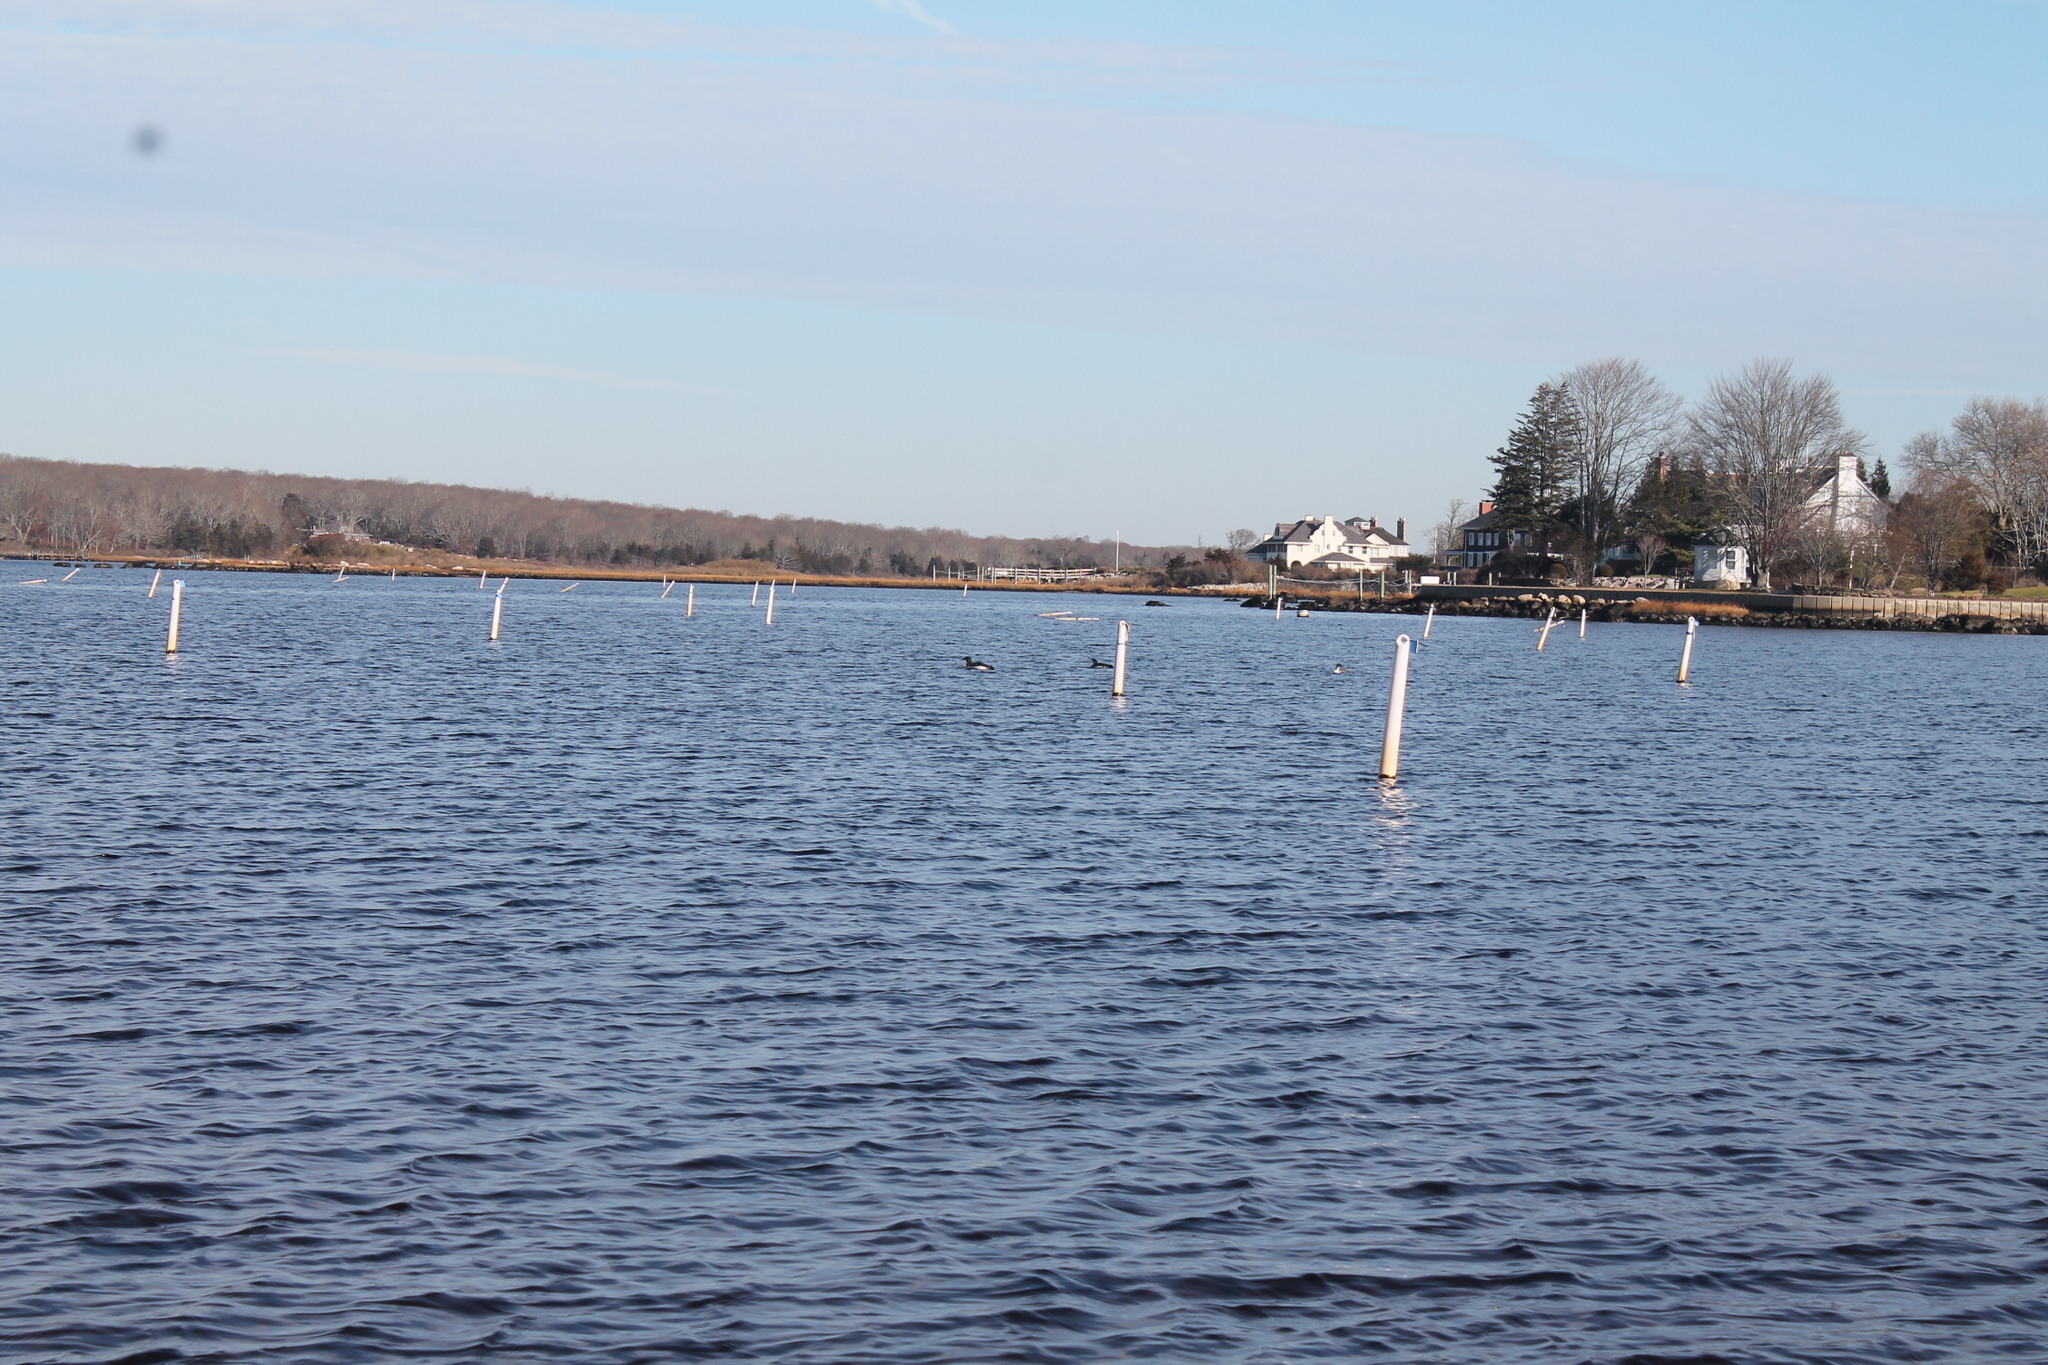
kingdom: Animalia
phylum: Chordata
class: Aves
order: Gaviiformes
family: Gaviidae
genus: Gavia
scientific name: Gavia immer
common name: Common loon
